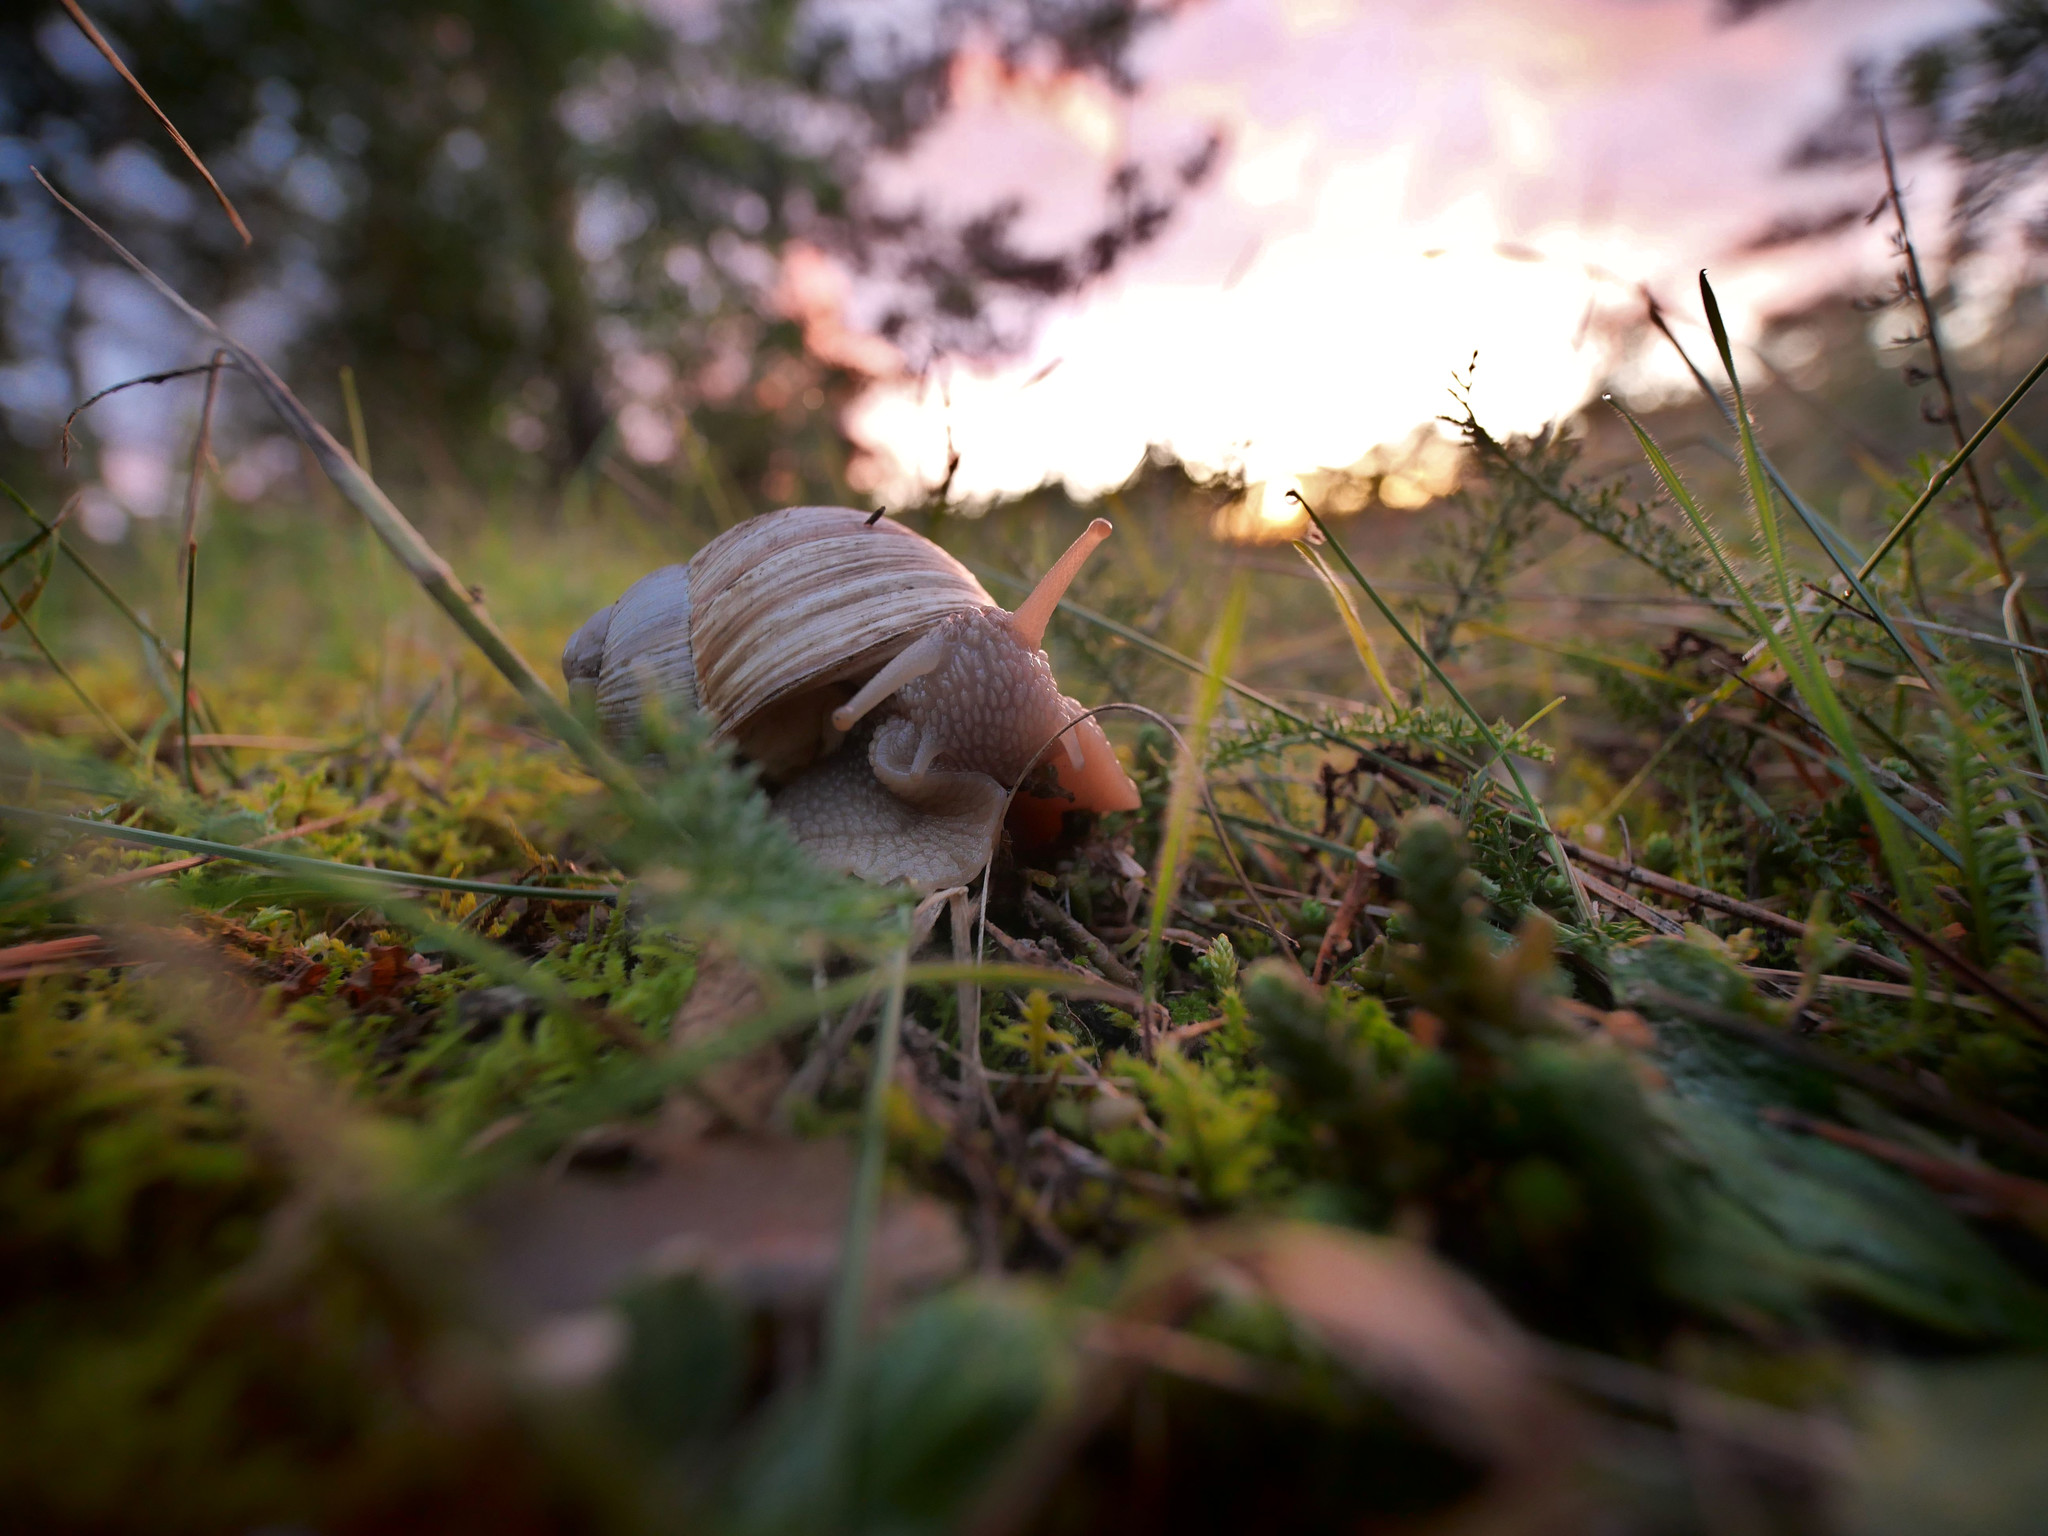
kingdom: Animalia
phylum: Mollusca
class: Gastropoda
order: Stylommatophora
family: Helicidae
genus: Helix
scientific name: Helix pomatia
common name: Roman snail
